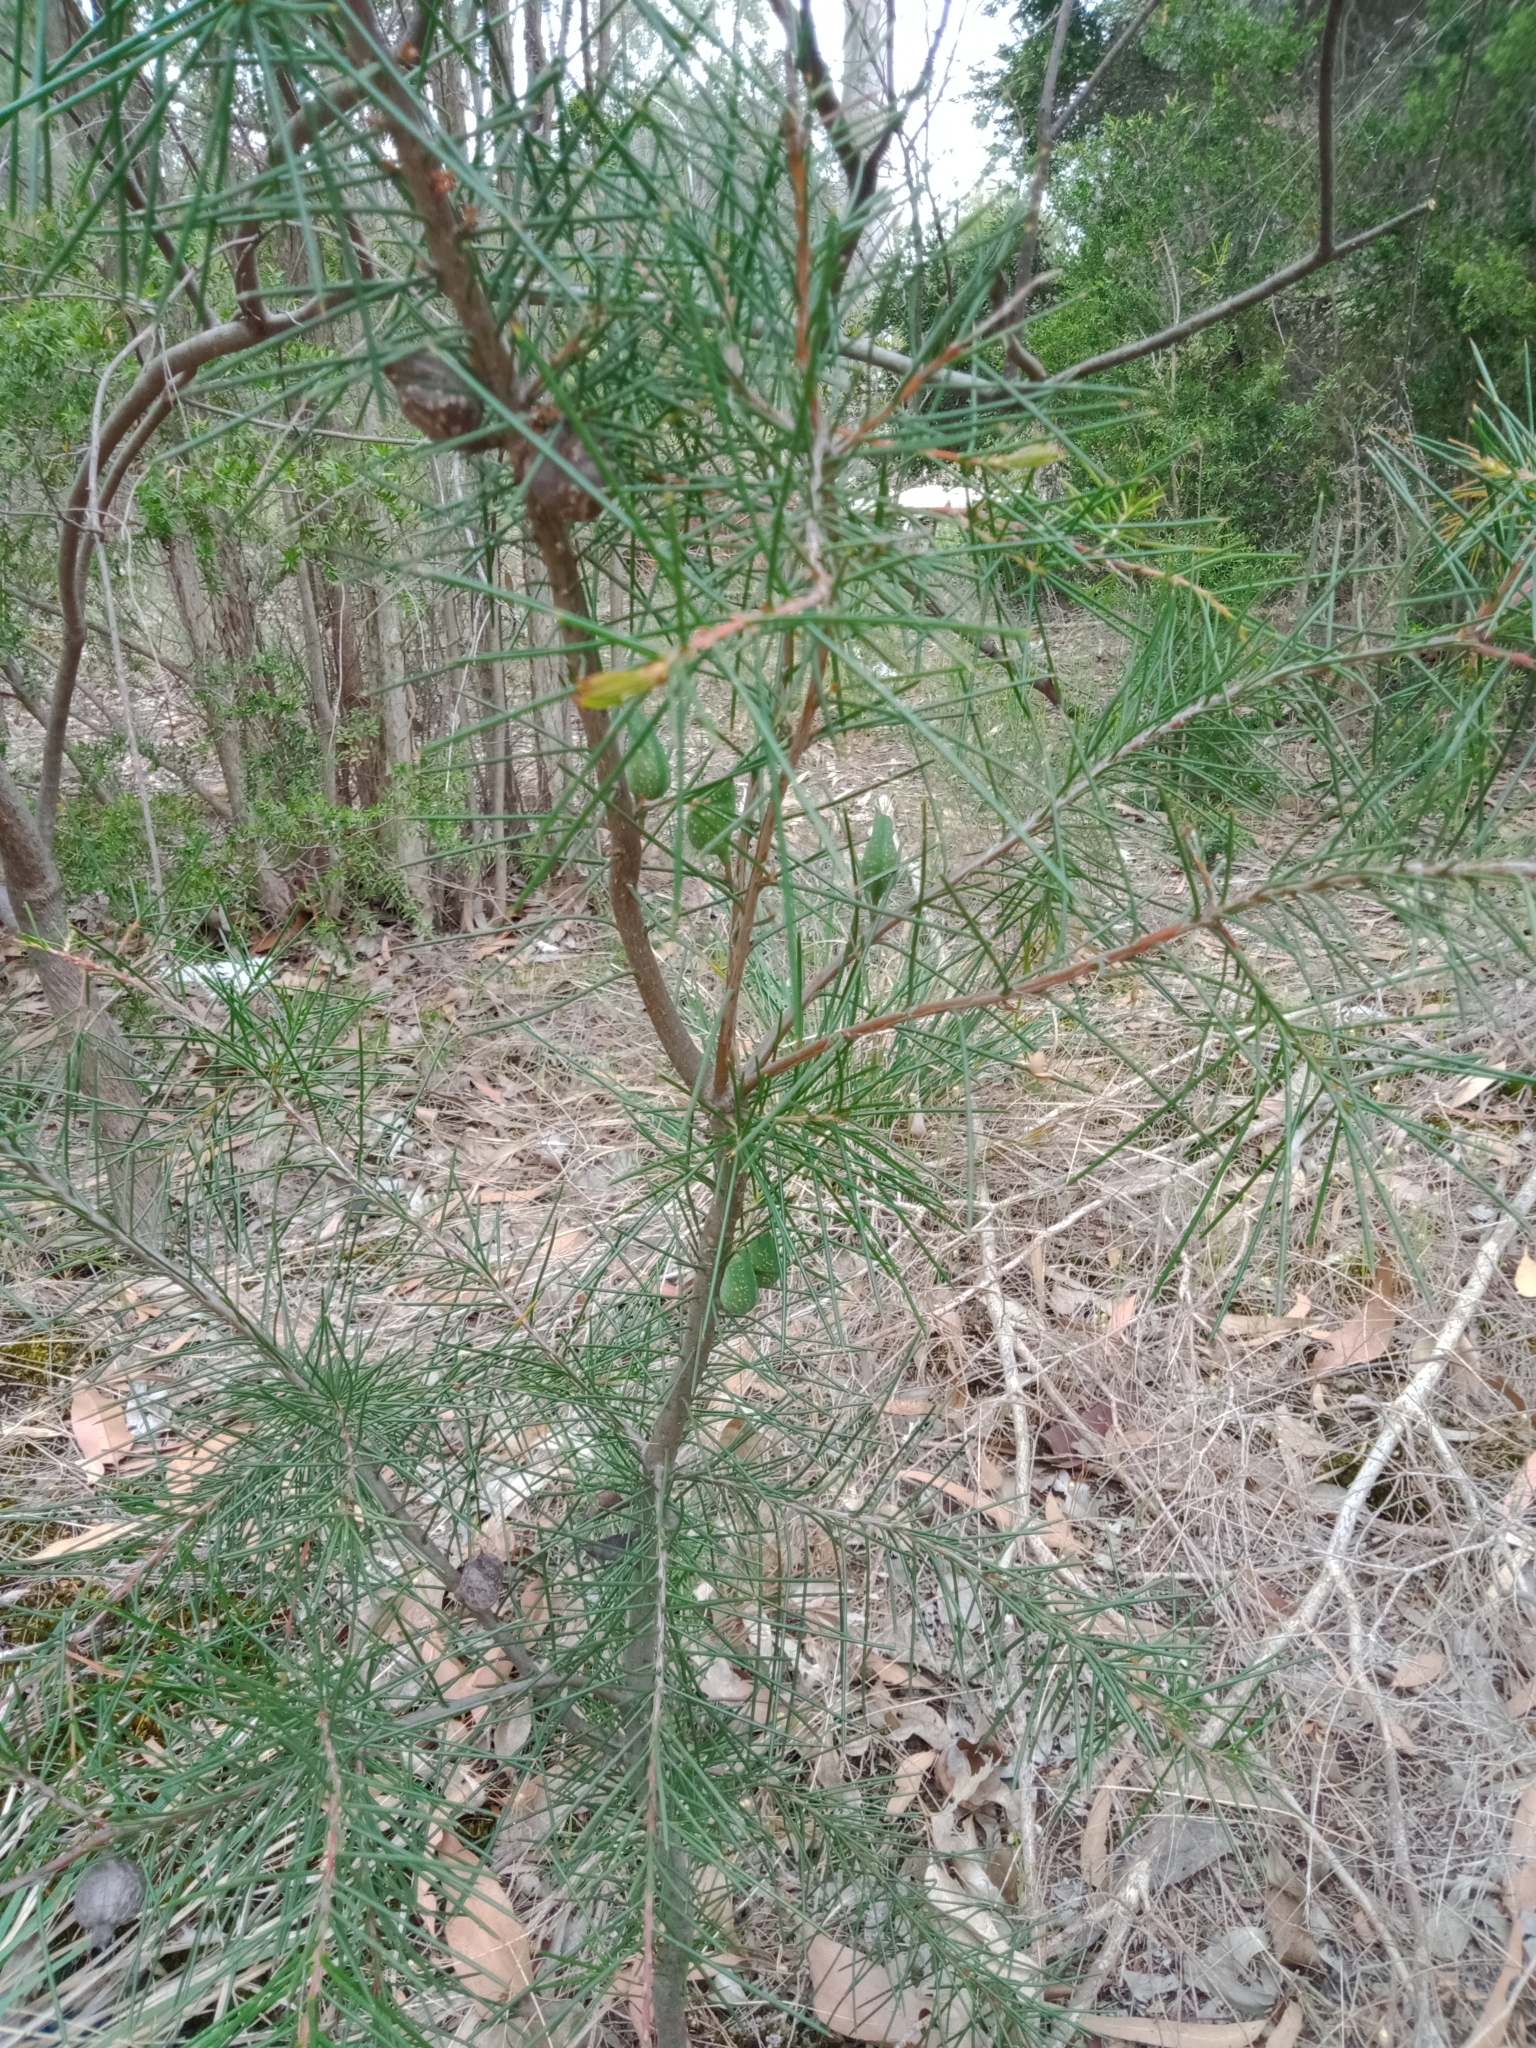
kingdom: Plantae
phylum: Tracheophyta
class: Magnoliopsida
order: Proteales
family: Proteaceae
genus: Hakea
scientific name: Hakea decurrens
